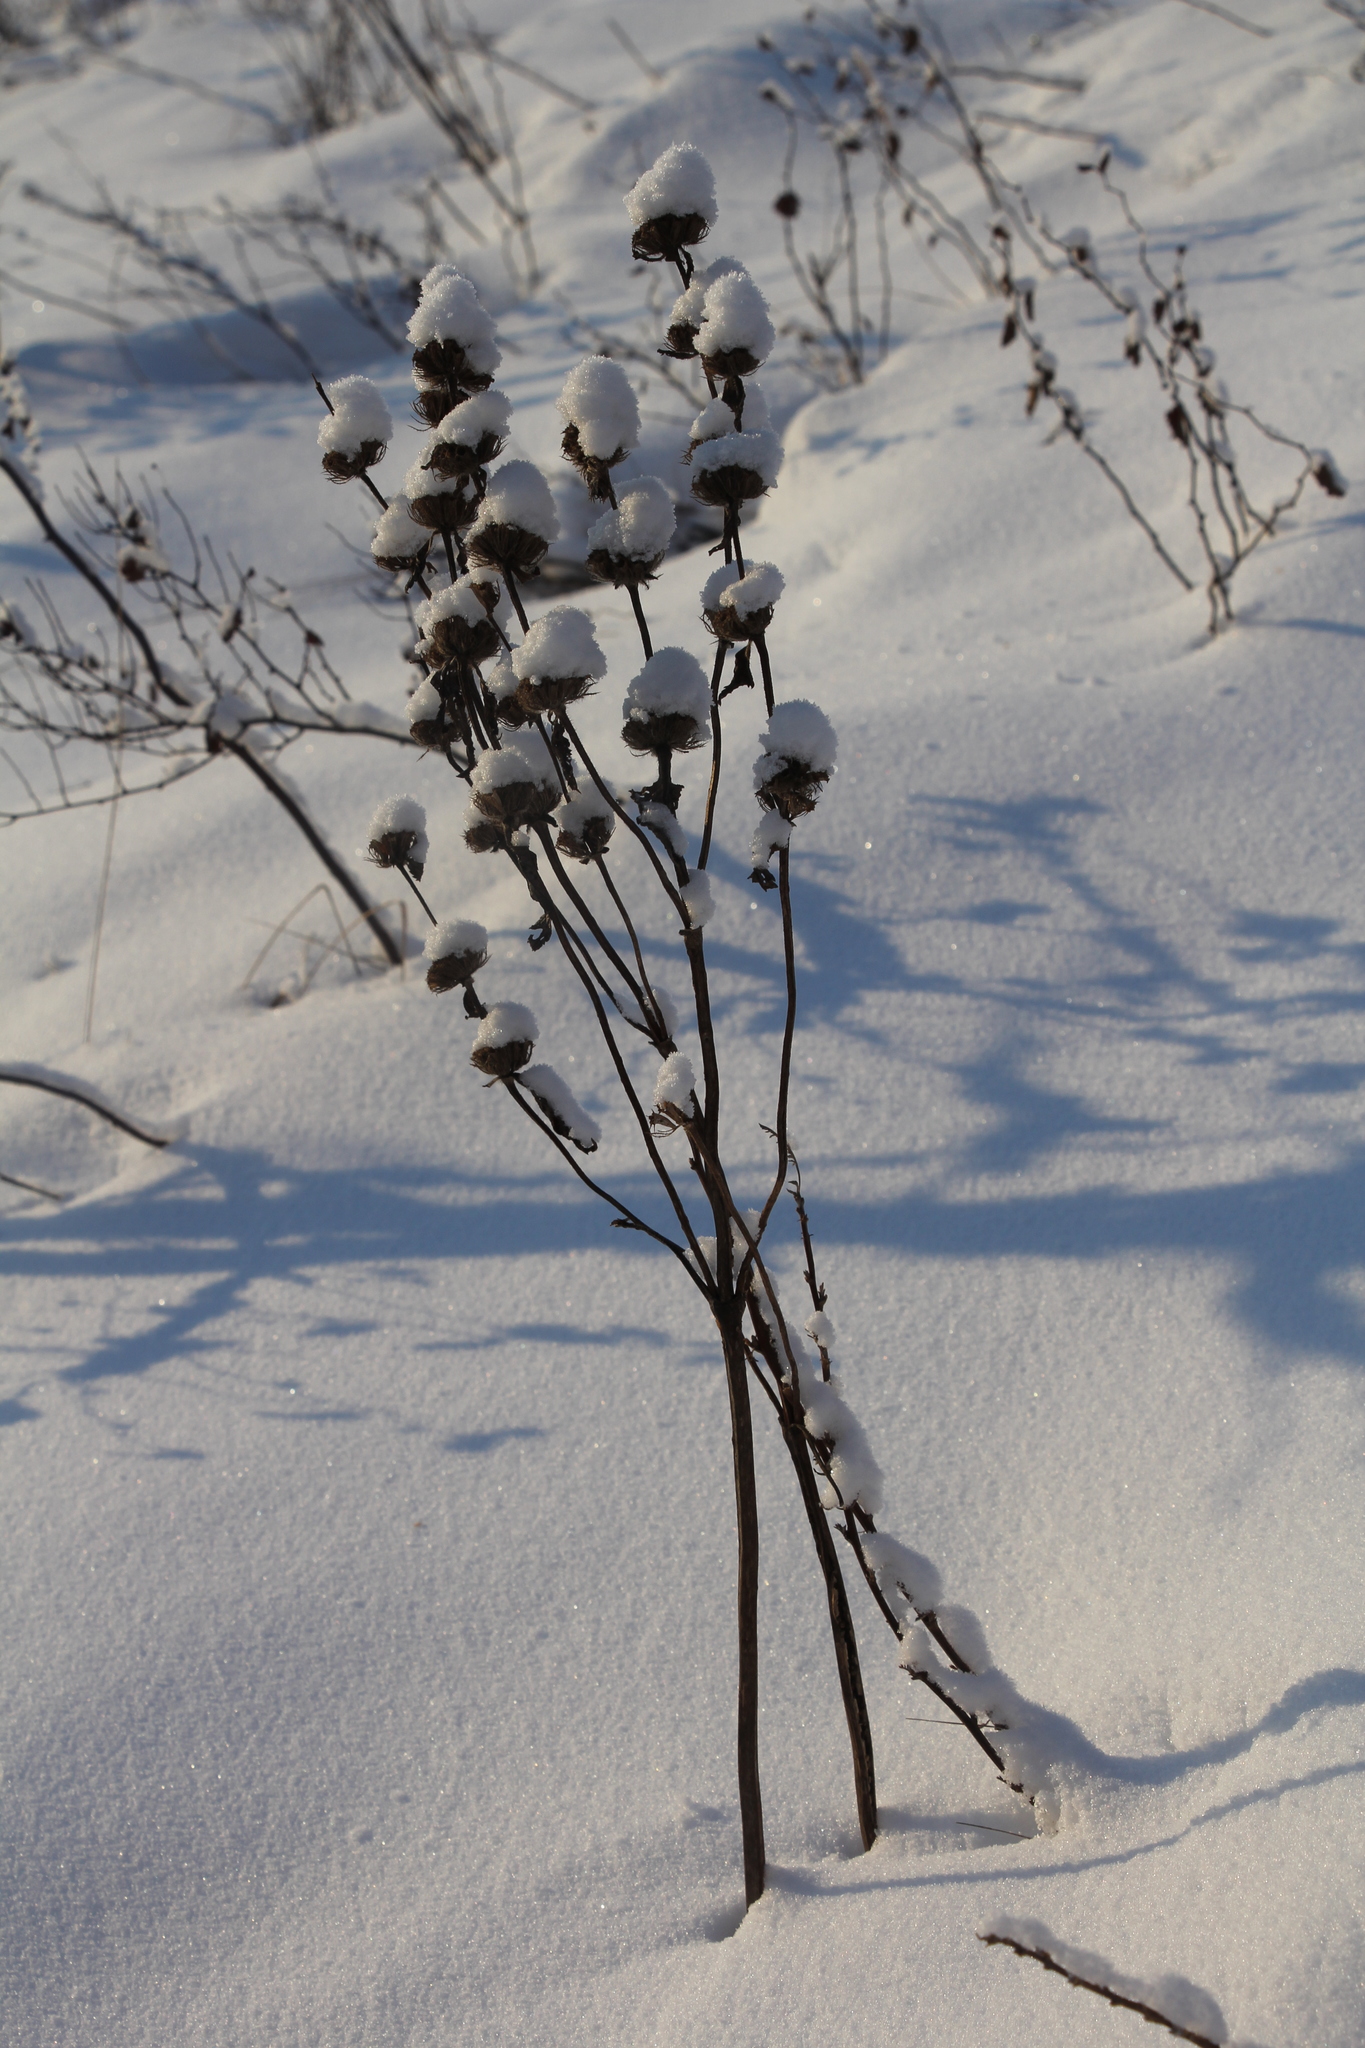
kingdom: Plantae
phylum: Tracheophyta
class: Magnoliopsida
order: Lamiales
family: Lamiaceae
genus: Phlomoides
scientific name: Phlomoides tuberosa
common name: Tuberous jerusalem sage
